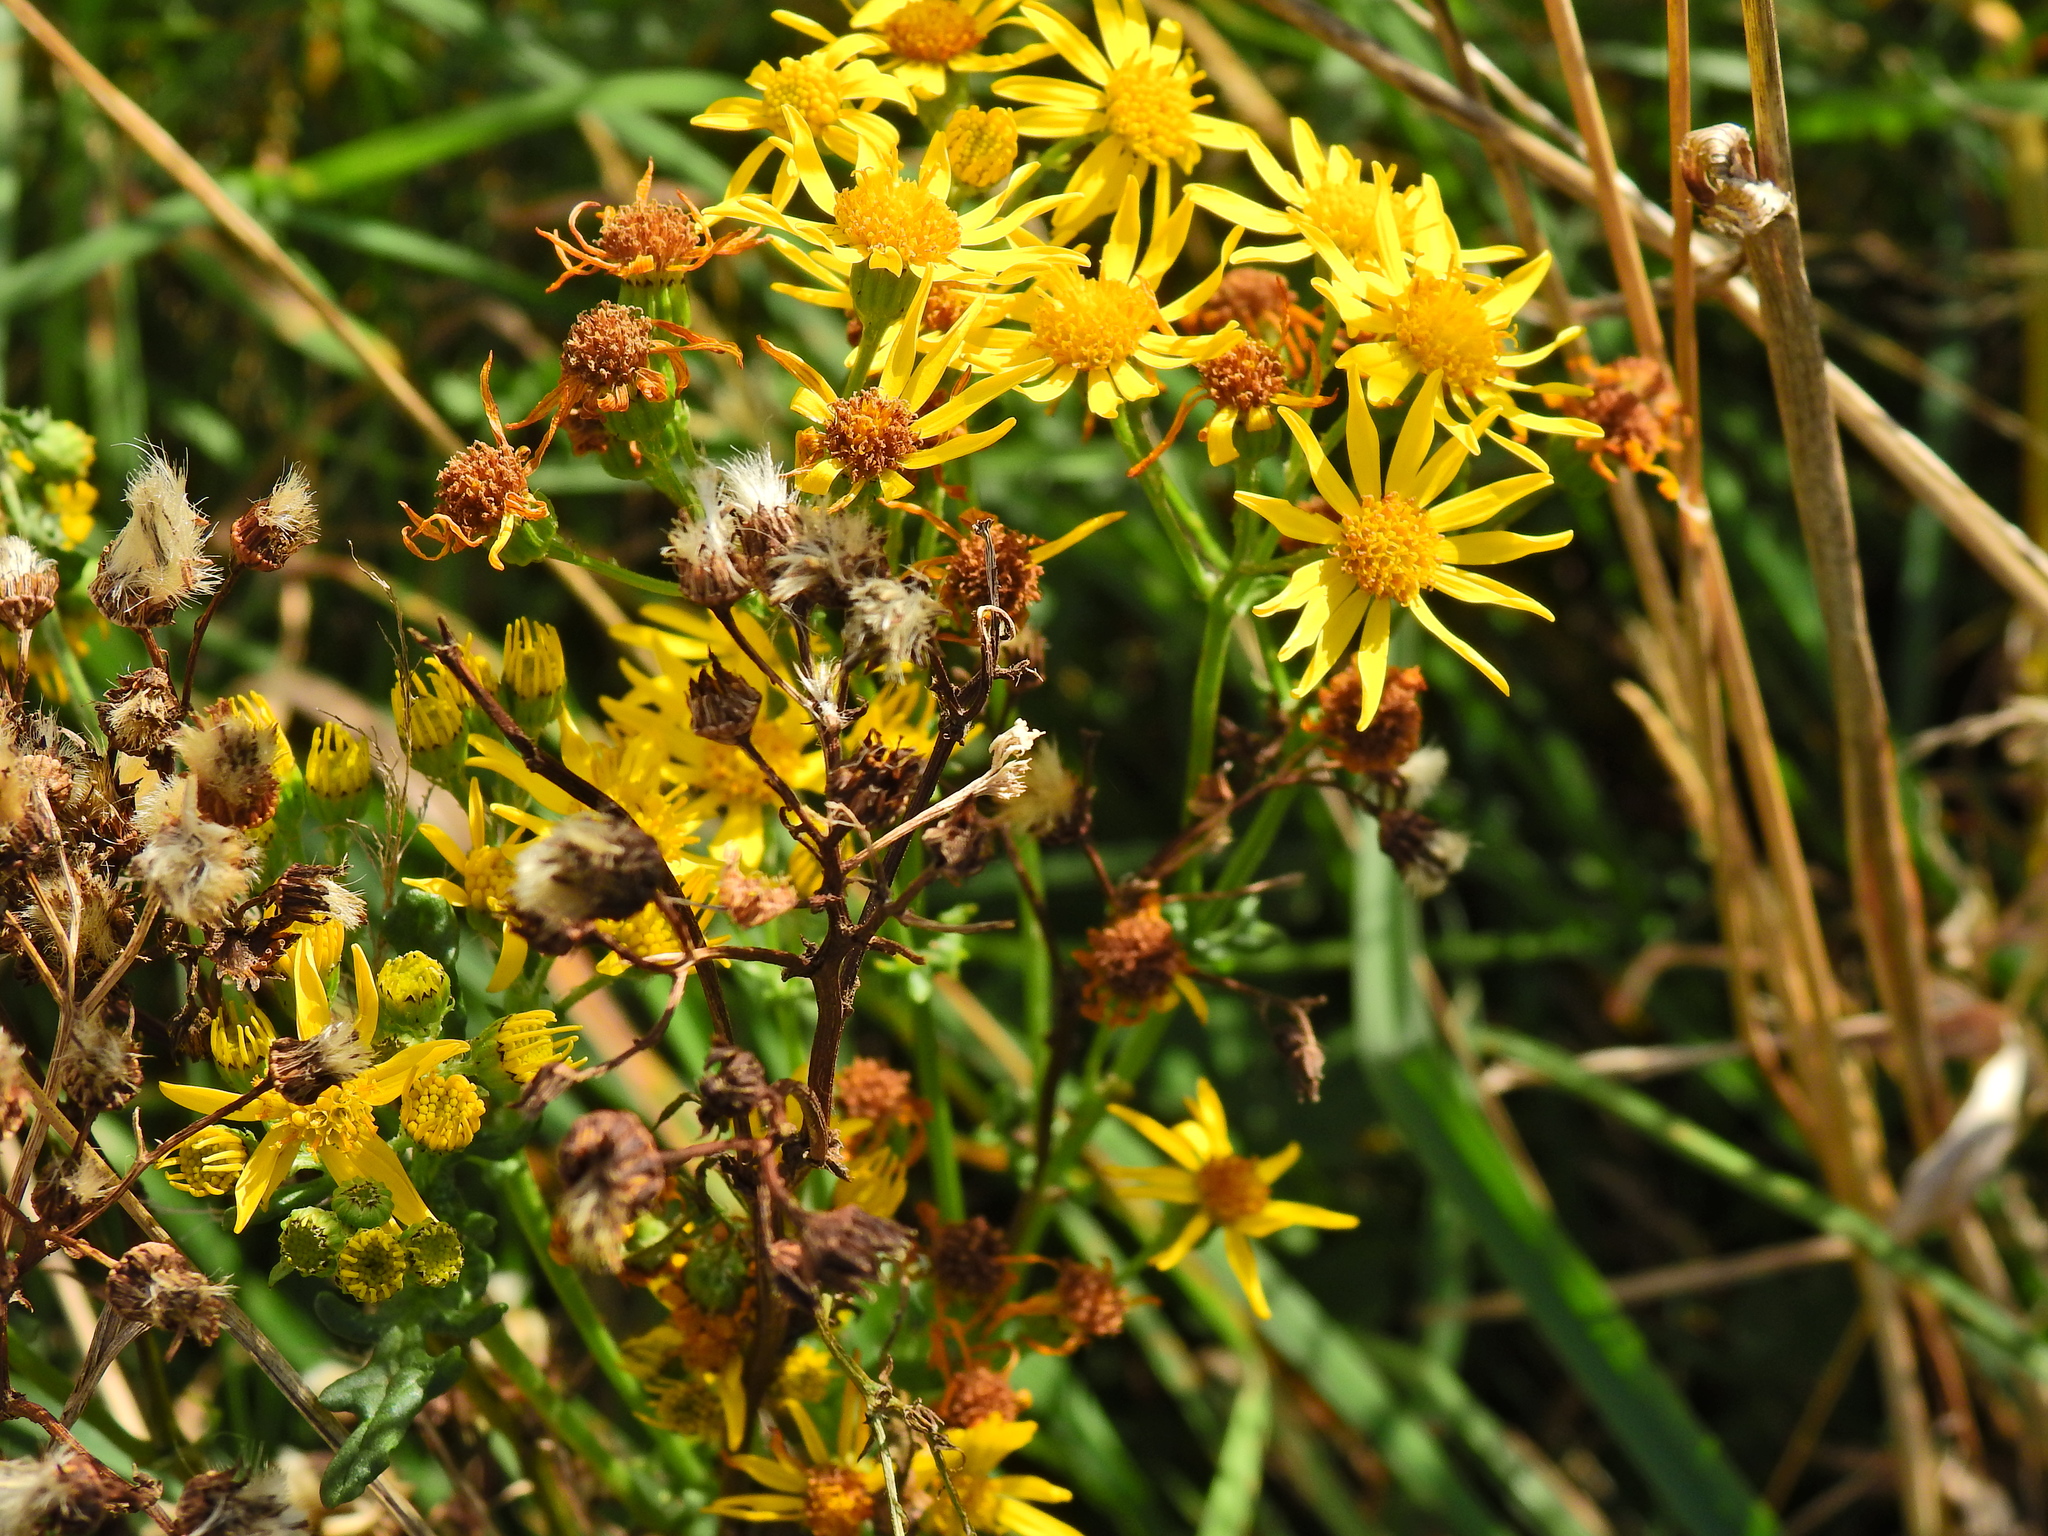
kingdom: Plantae
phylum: Tracheophyta
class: Magnoliopsida
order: Asterales
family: Asteraceae
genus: Jacobaea
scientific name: Jacobaea vulgaris
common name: Stinking willie
